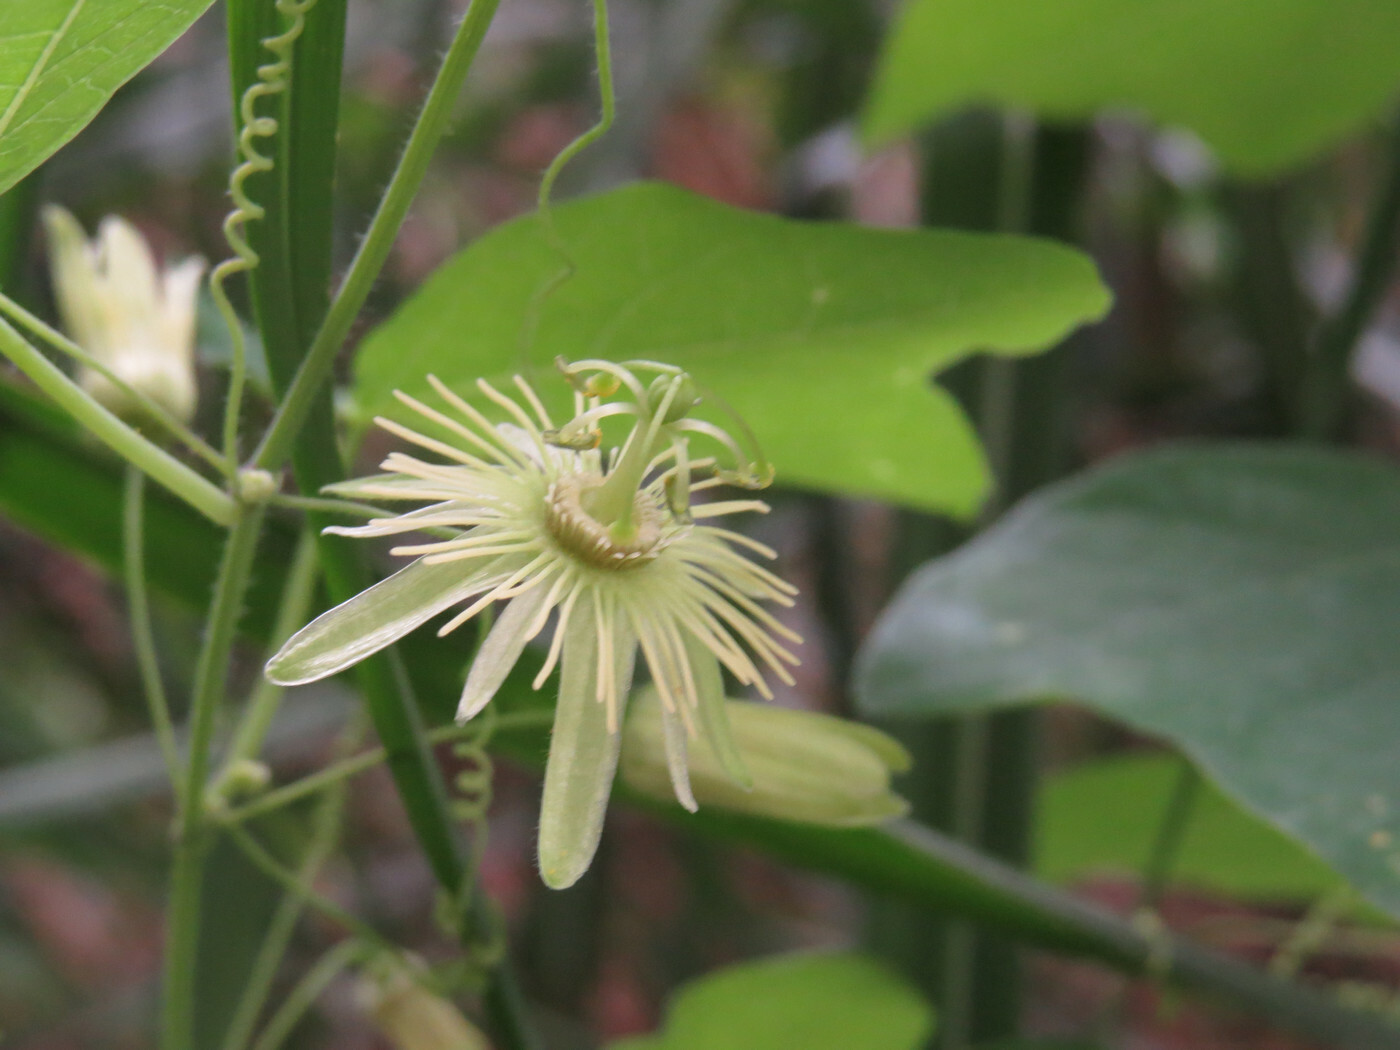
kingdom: Plantae
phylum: Tracheophyta
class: Magnoliopsida
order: Malpighiales
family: Passifloraceae
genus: Passiflora
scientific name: Passiflora lutea
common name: Yellow passionflower
